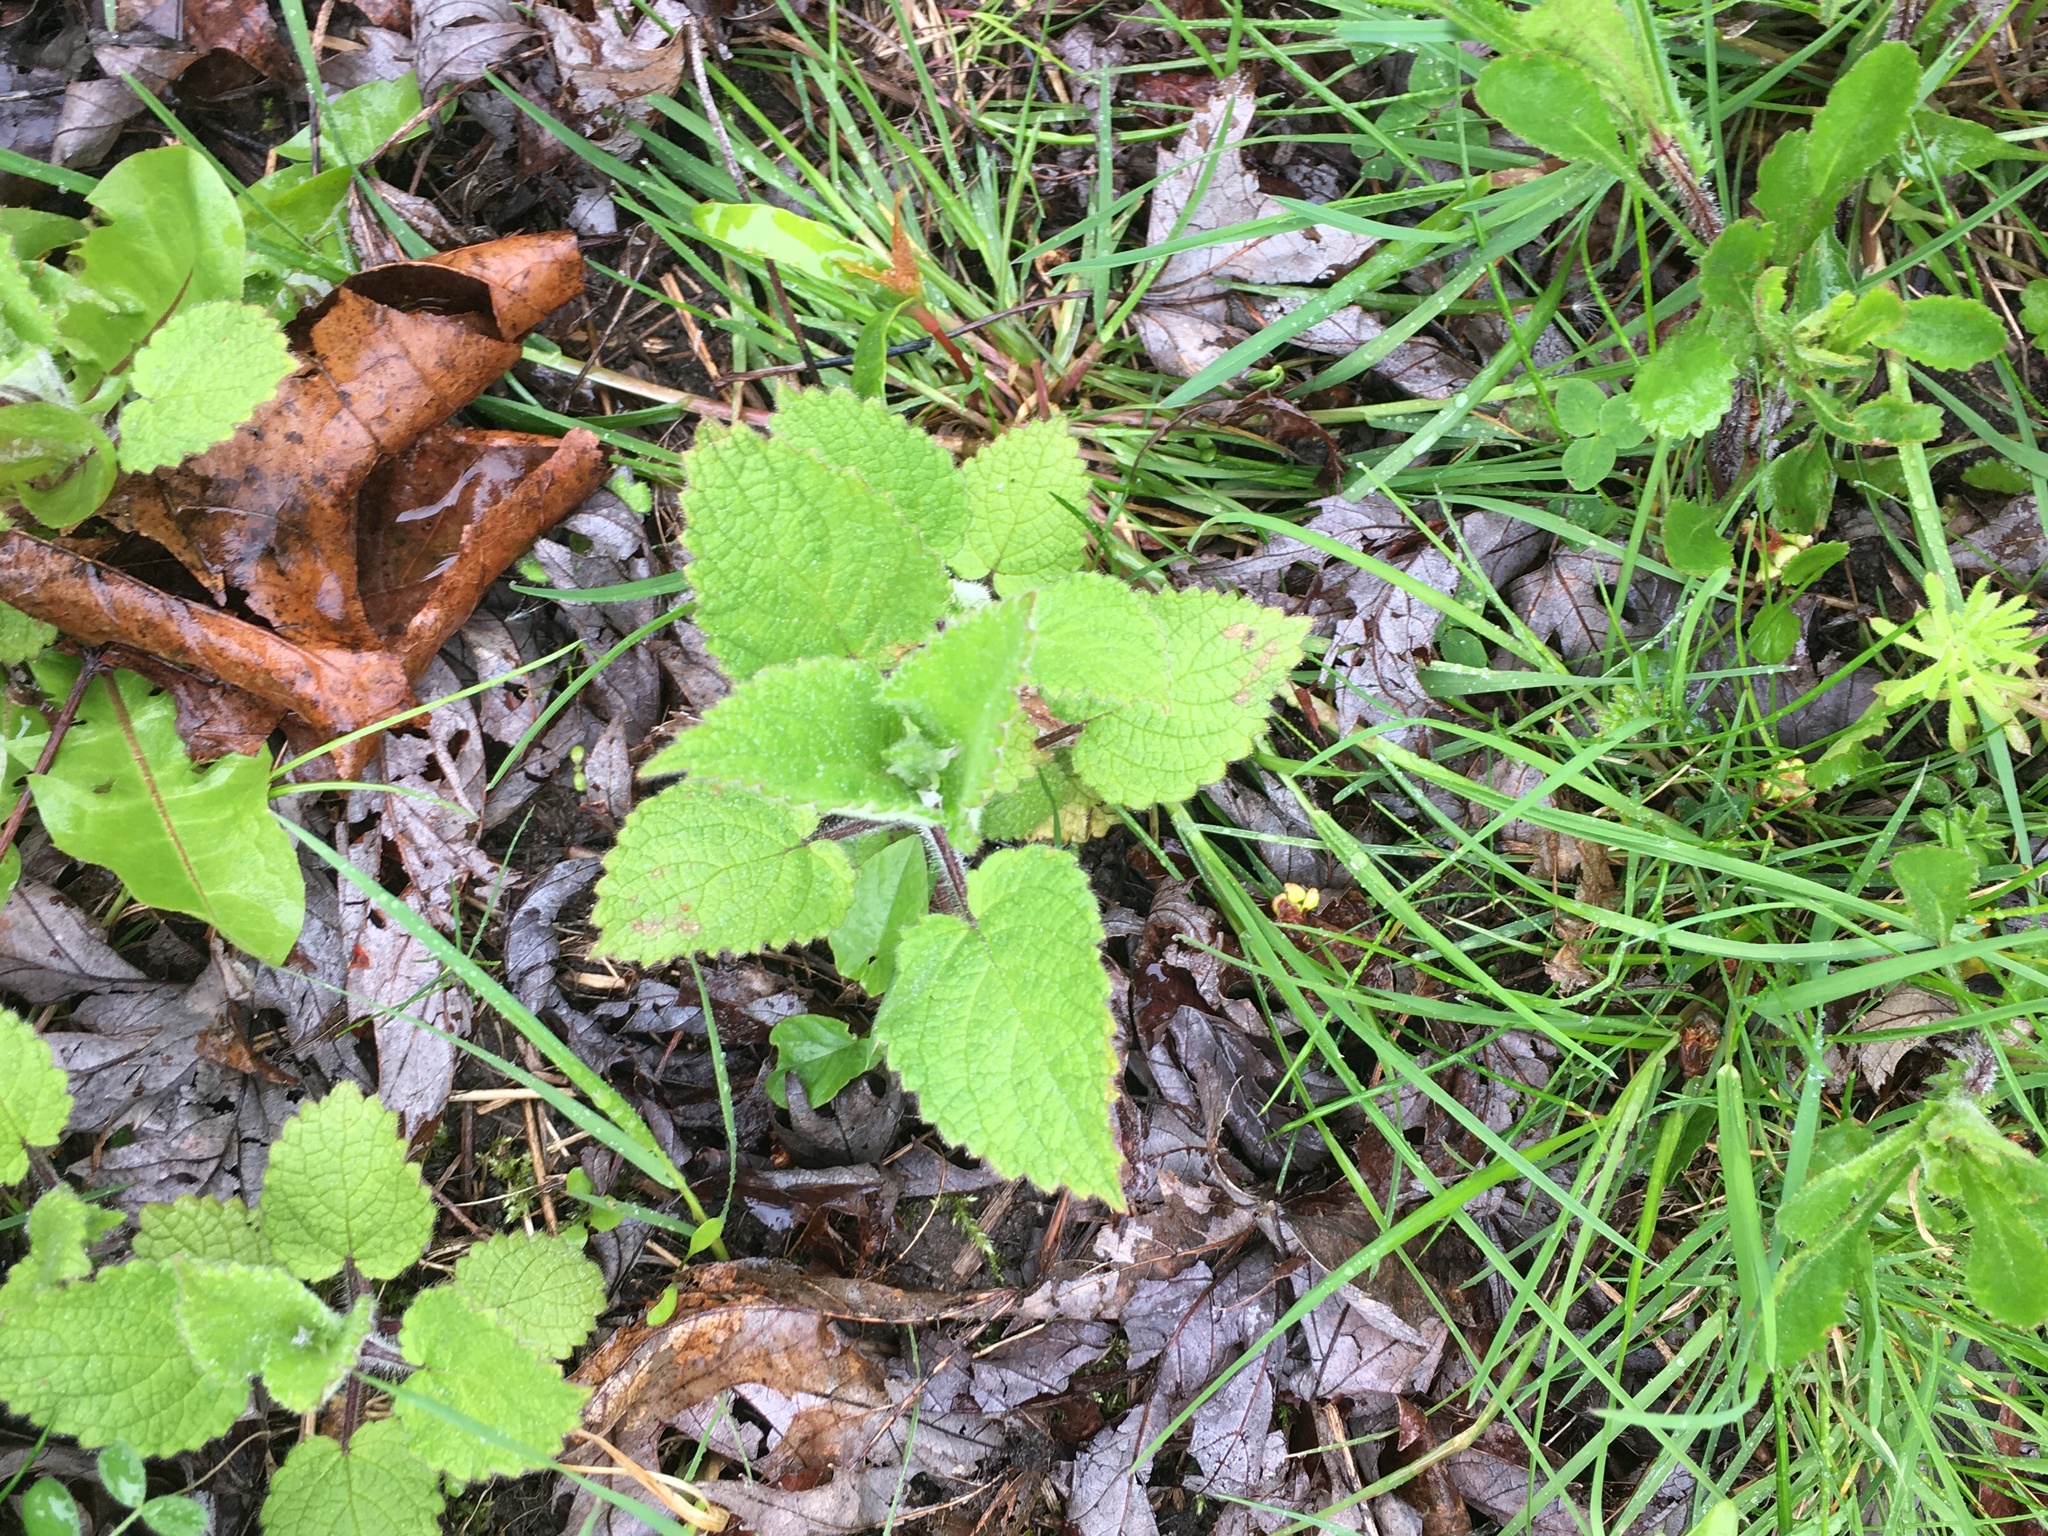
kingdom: Plantae
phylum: Tracheophyta
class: Magnoliopsida
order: Lamiales
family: Lamiaceae
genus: Stachys
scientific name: Stachys sylvatica
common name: Hedge woundwort
